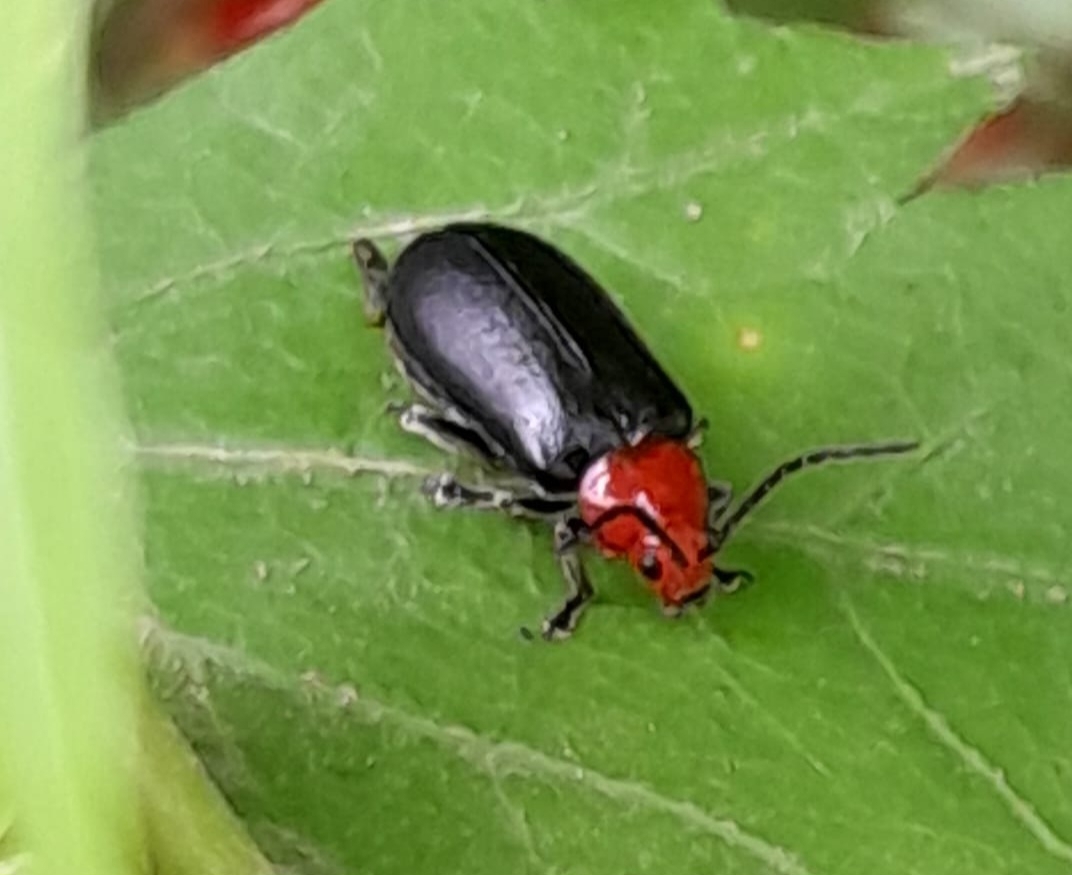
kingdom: Animalia
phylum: Arthropoda
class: Insecta
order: Coleoptera
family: Chrysomelidae
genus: Cacoscelis
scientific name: Cacoscelis
